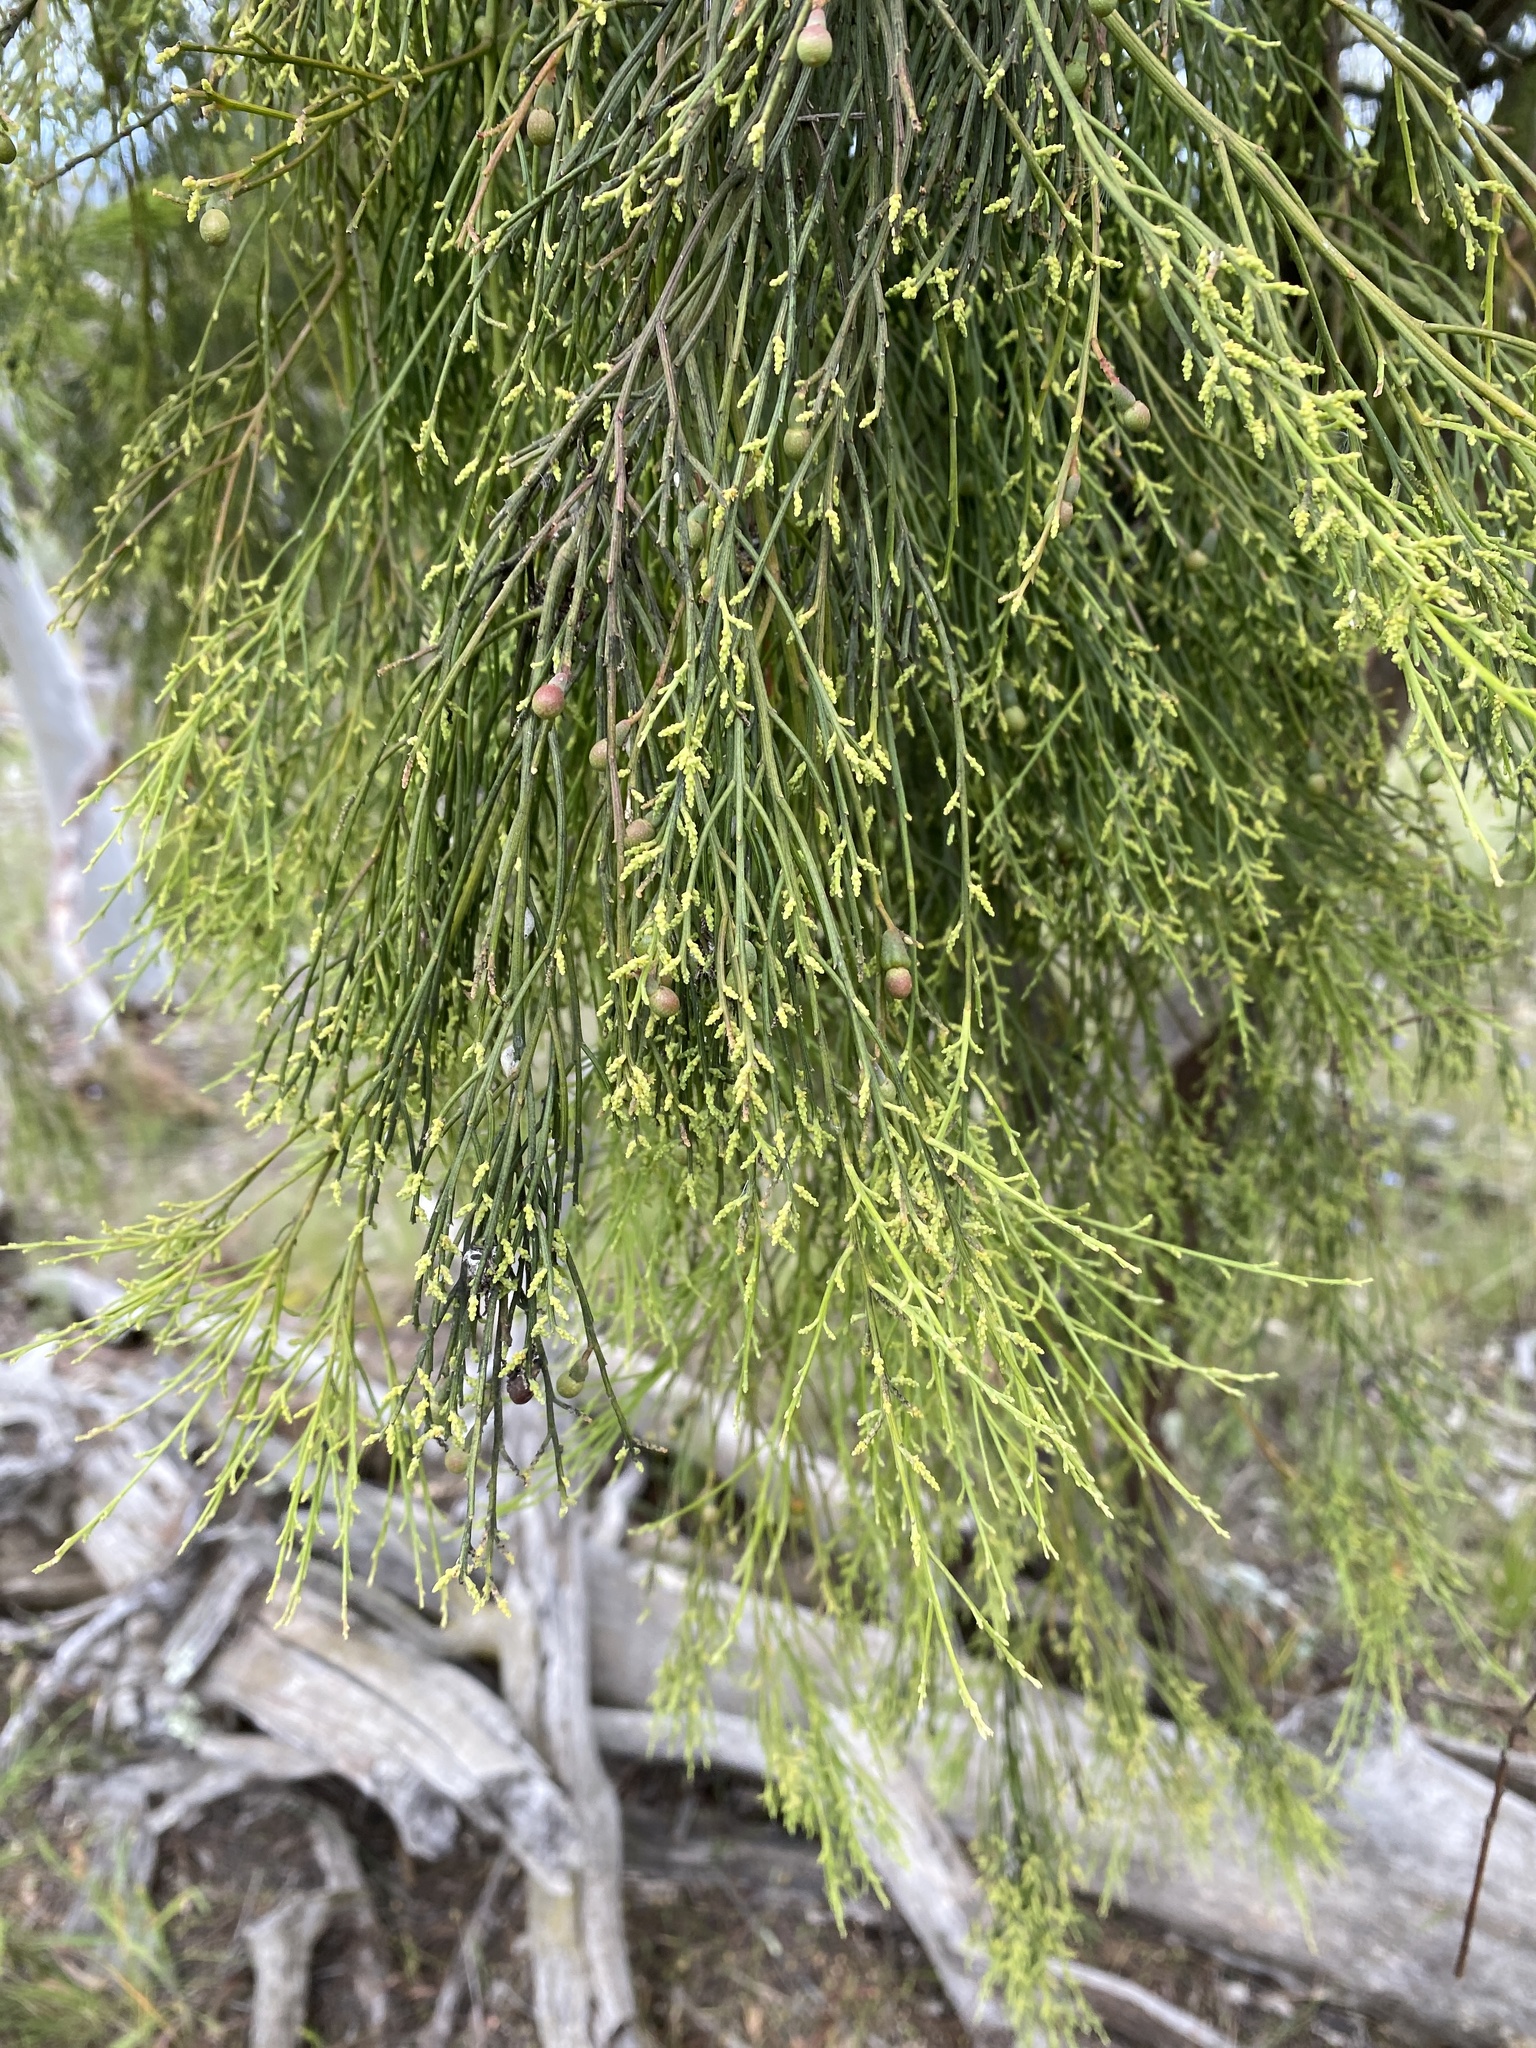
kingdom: Plantae
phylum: Tracheophyta
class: Magnoliopsida
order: Santalales
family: Santalaceae
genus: Exocarpos
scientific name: Exocarpos cupressiformis
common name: Cherry ballart
